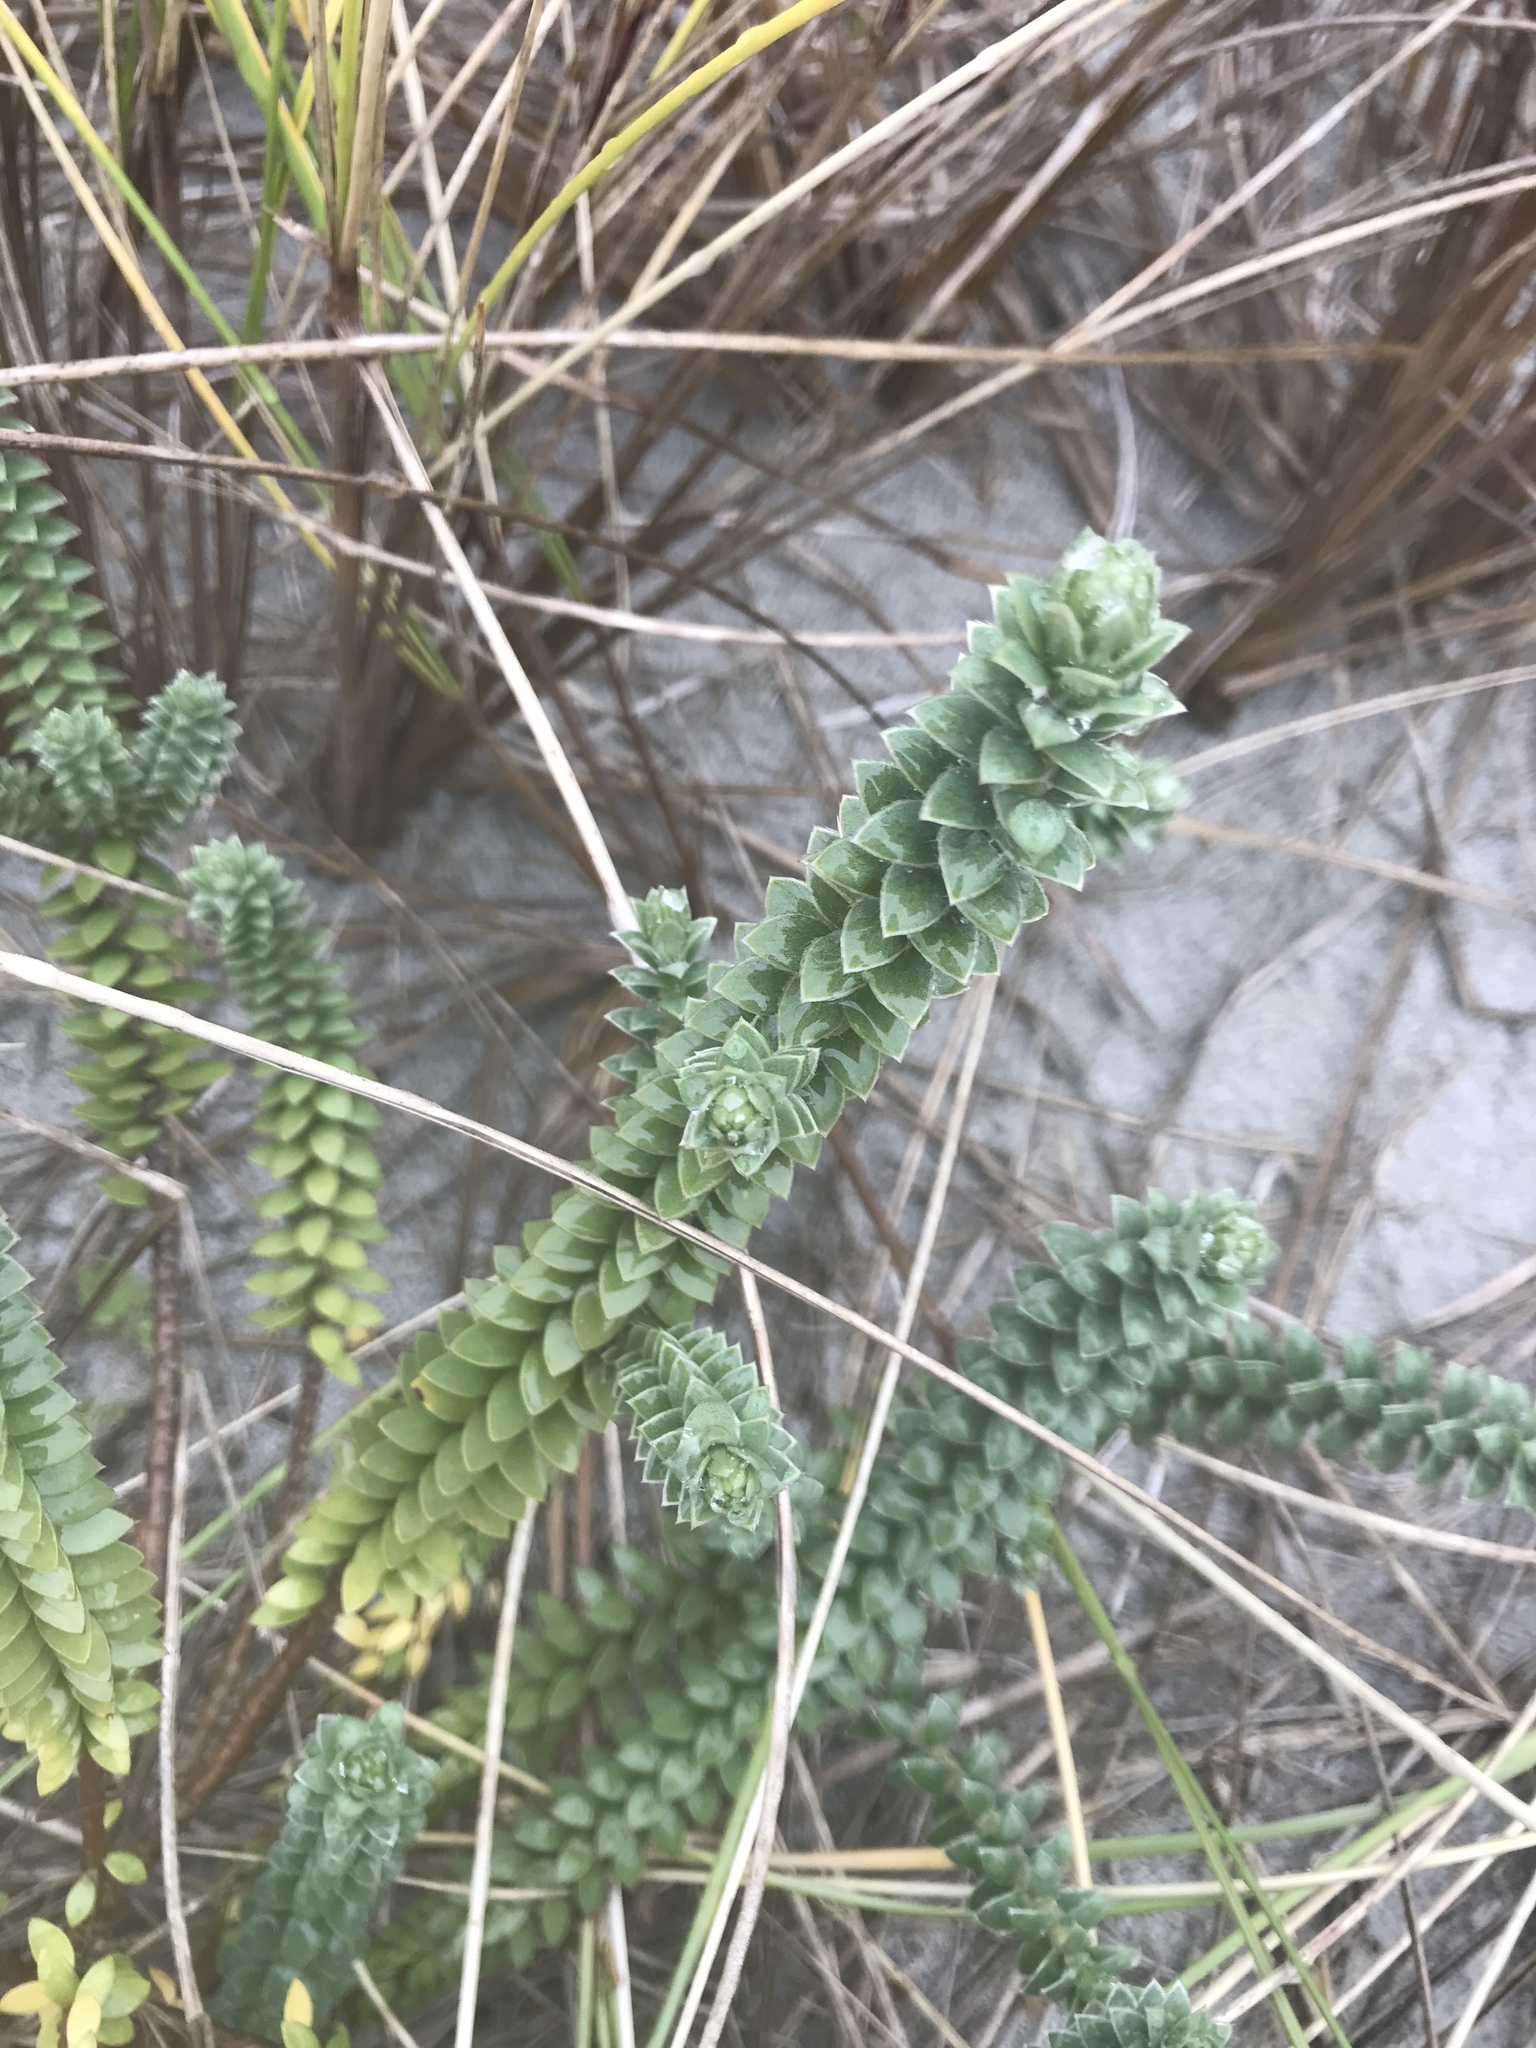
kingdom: Plantae
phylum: Tracheophyta
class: Magnoliopsida
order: Malvales
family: Thymelaeaceae
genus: Pimelea
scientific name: Pimelea villosa
